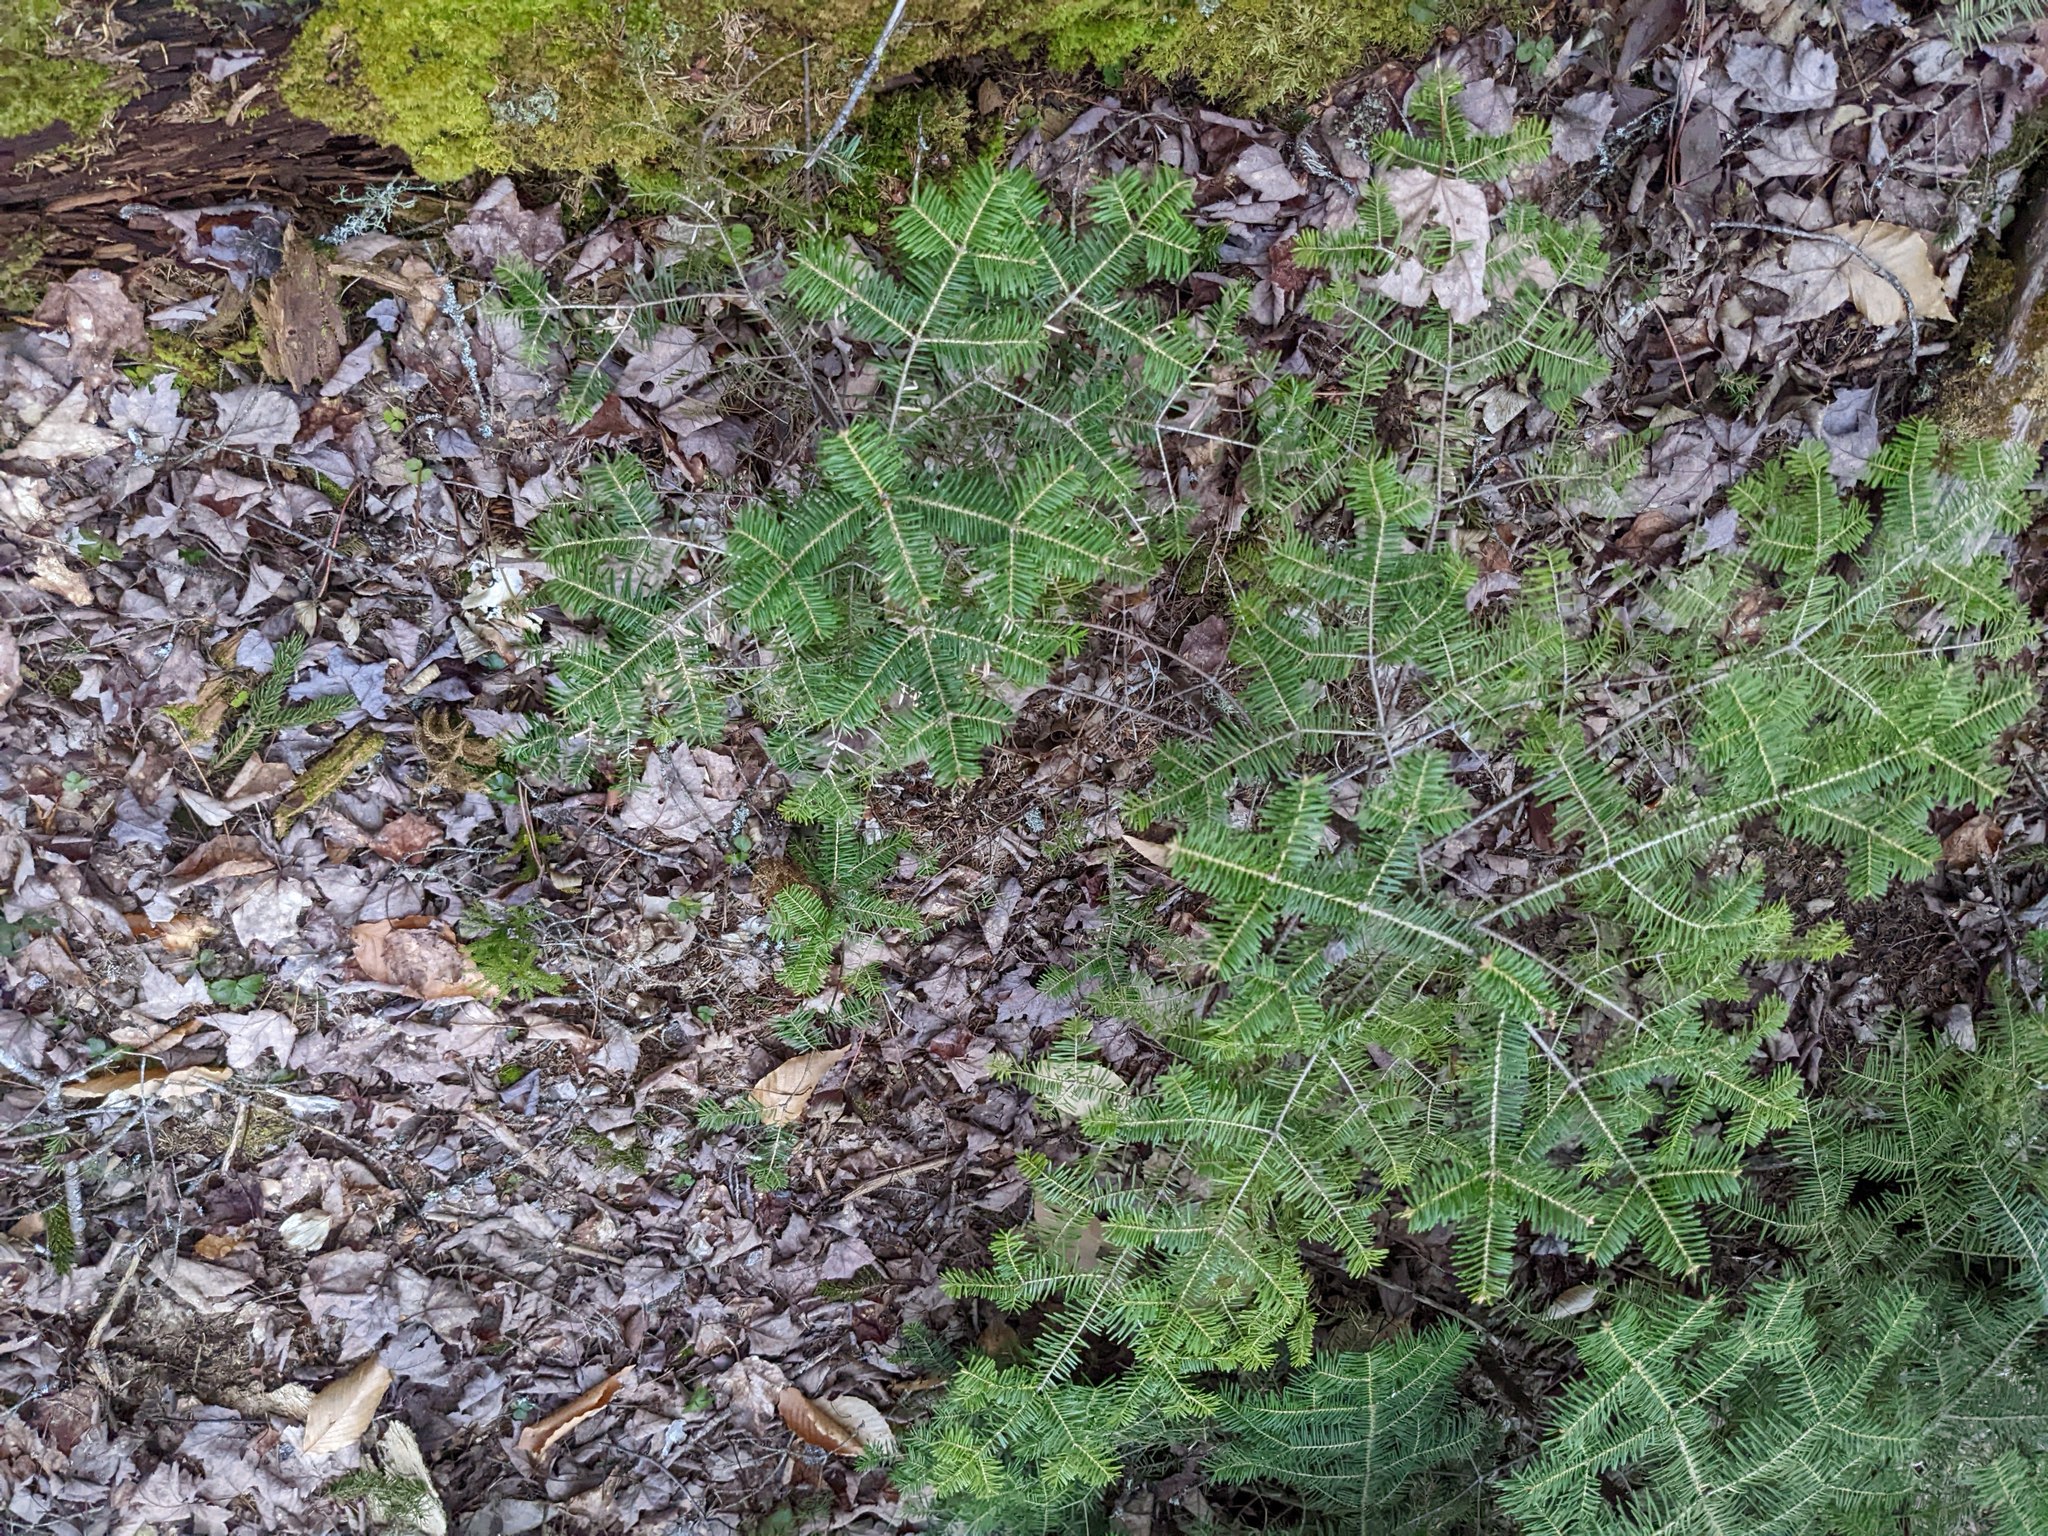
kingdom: Plantae
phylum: Tracheophyta
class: Pinopsida
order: Pinales
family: Pinaceae
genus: Abies
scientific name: Abies balsamea
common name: Balsam fir
